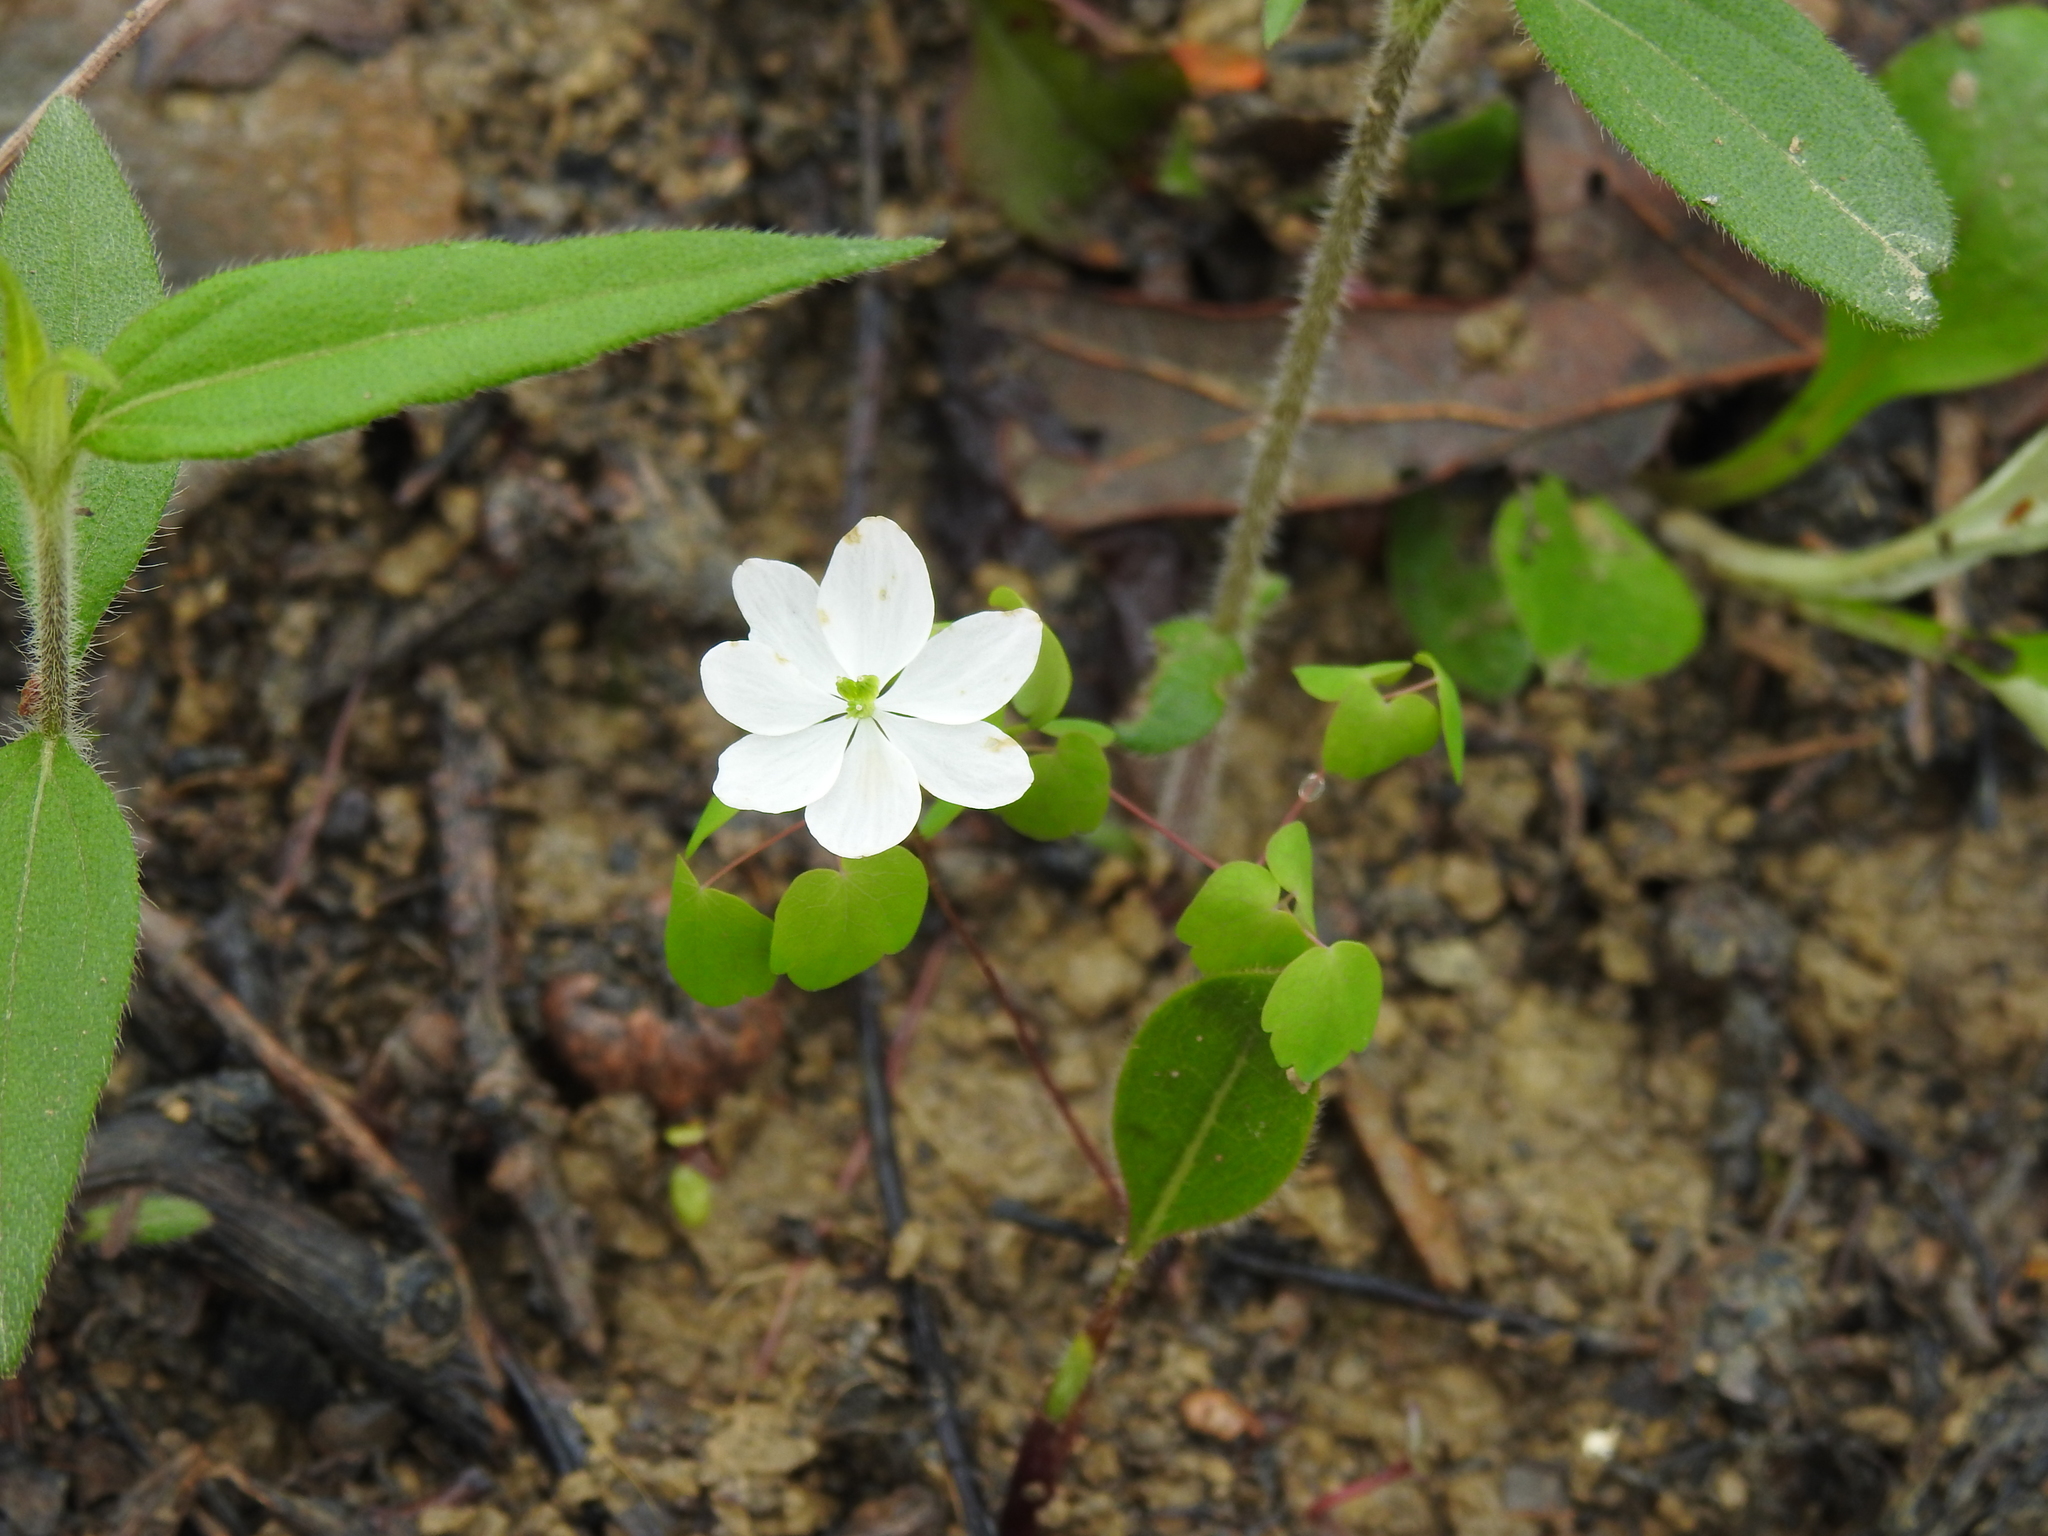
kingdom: Plantae
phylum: Tracheophyta
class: Magnoliopsida
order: Ranunculales
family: Ranunculaceae
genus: Thalictrum
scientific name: Thalictrum thalictroides
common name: Rue-anemone
